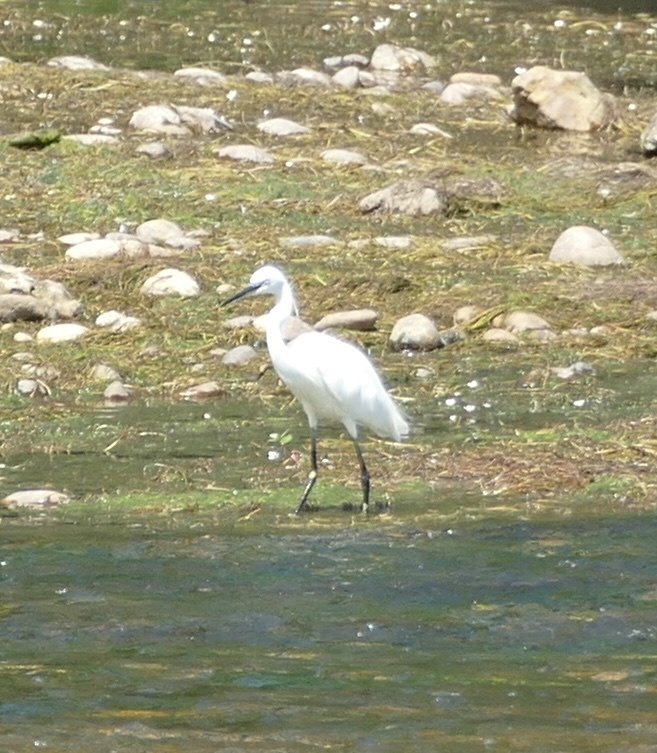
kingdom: Animalia
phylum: Chordata
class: Aves
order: Pelecaniformes
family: Ardeidae
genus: Egretta
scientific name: Egretta garzetta
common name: Little egret
